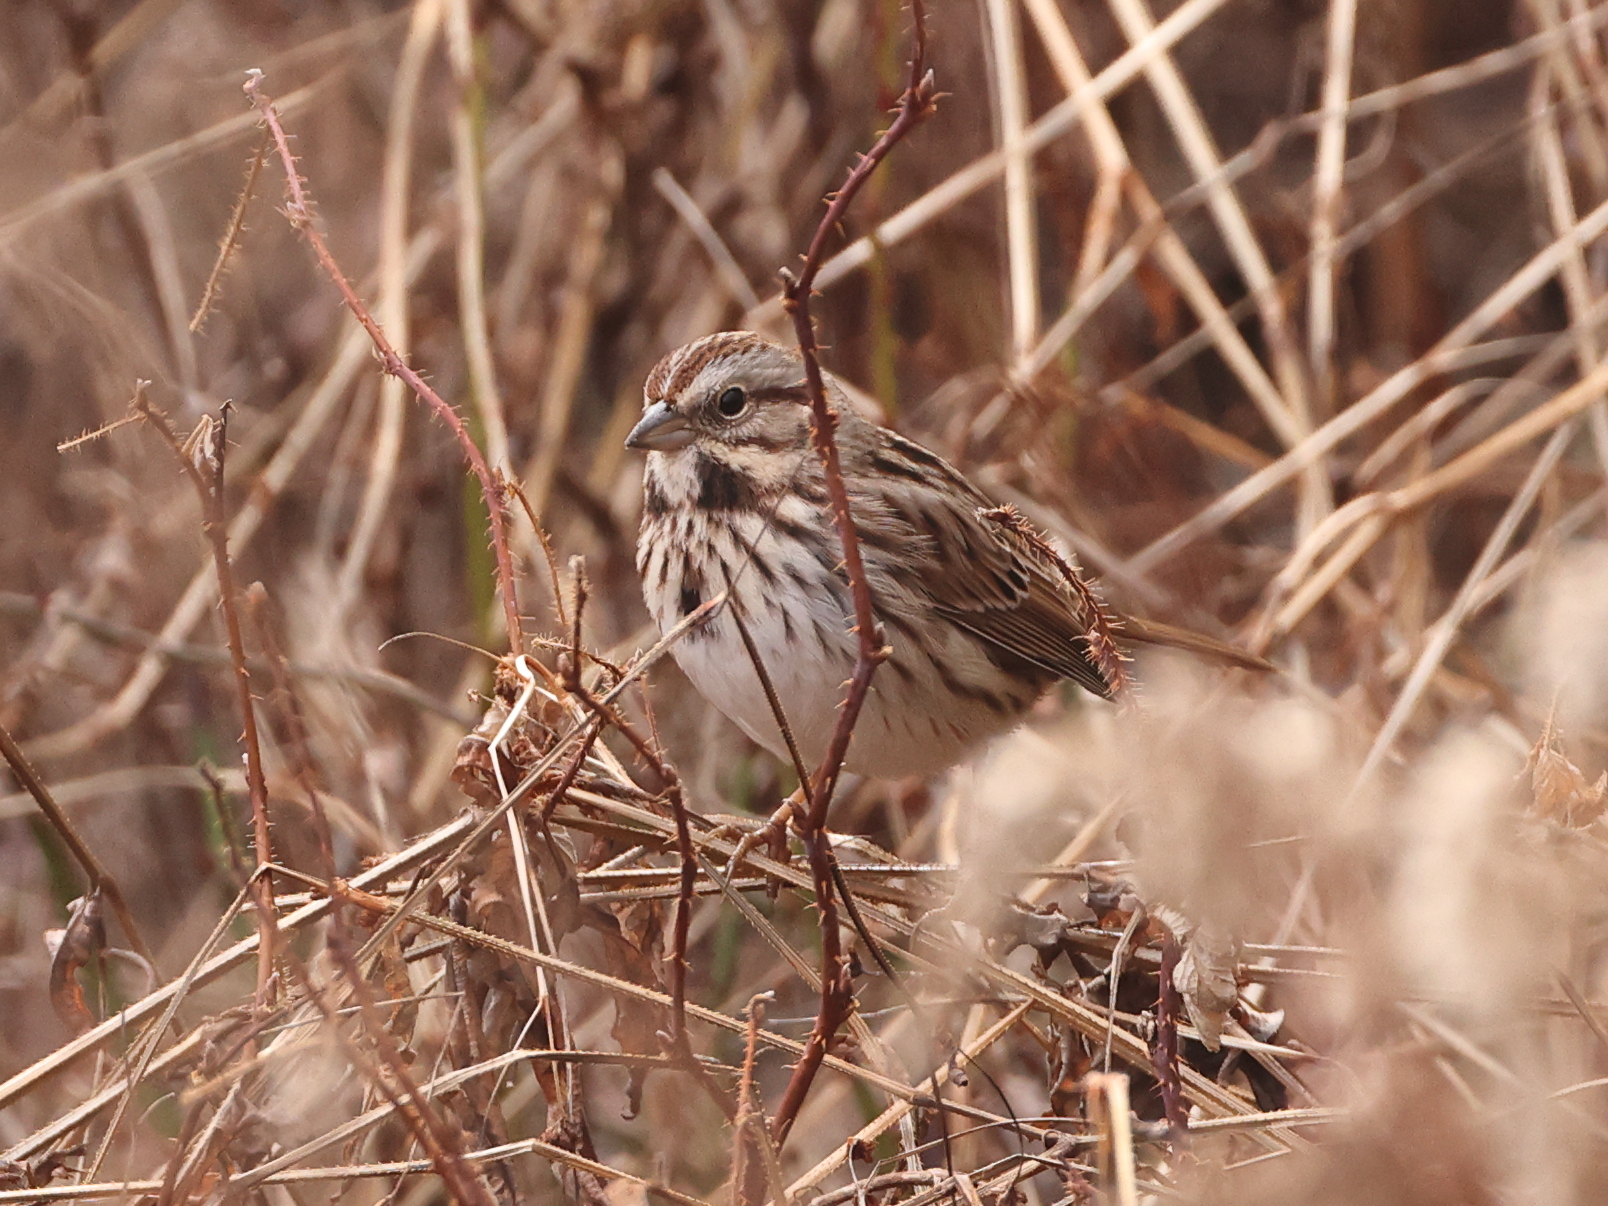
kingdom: Animalia
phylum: Chordata
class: Aves
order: Passeriformes
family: Passerellidae
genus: Melospiza
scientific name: Melospiza melodia
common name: Song sparrow
